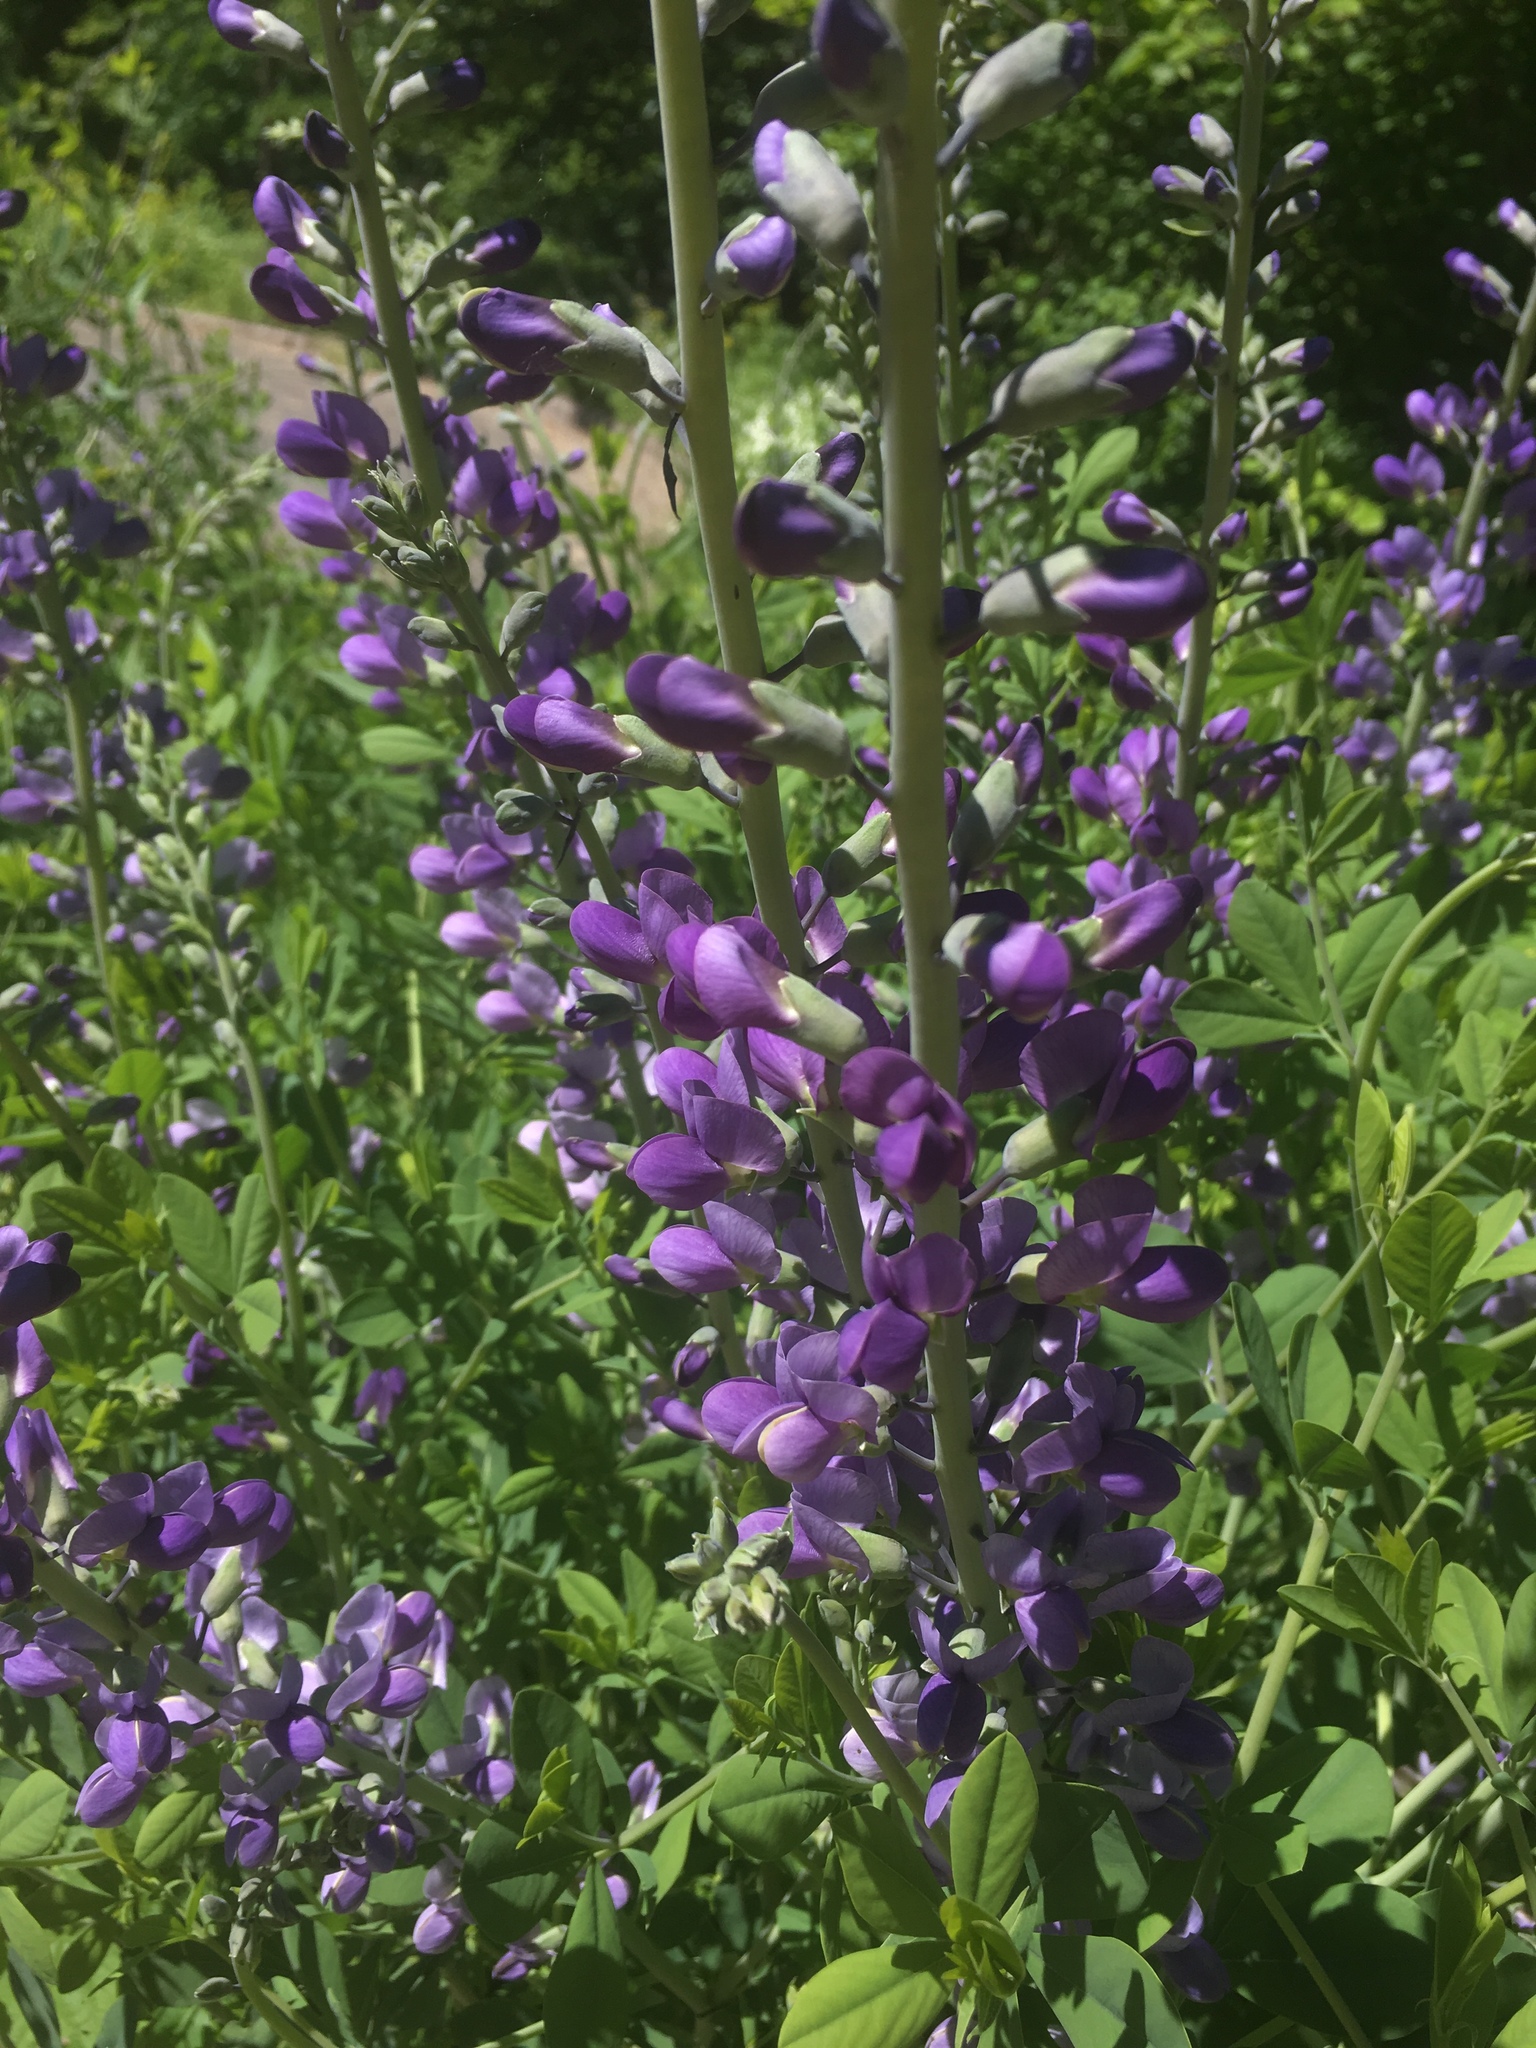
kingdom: Plantae
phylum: Tracheophyta
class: Magnoliopsida
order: Fabales
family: Fabaceae
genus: Baptisia
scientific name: Baptisia australis
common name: Blue false indigo
